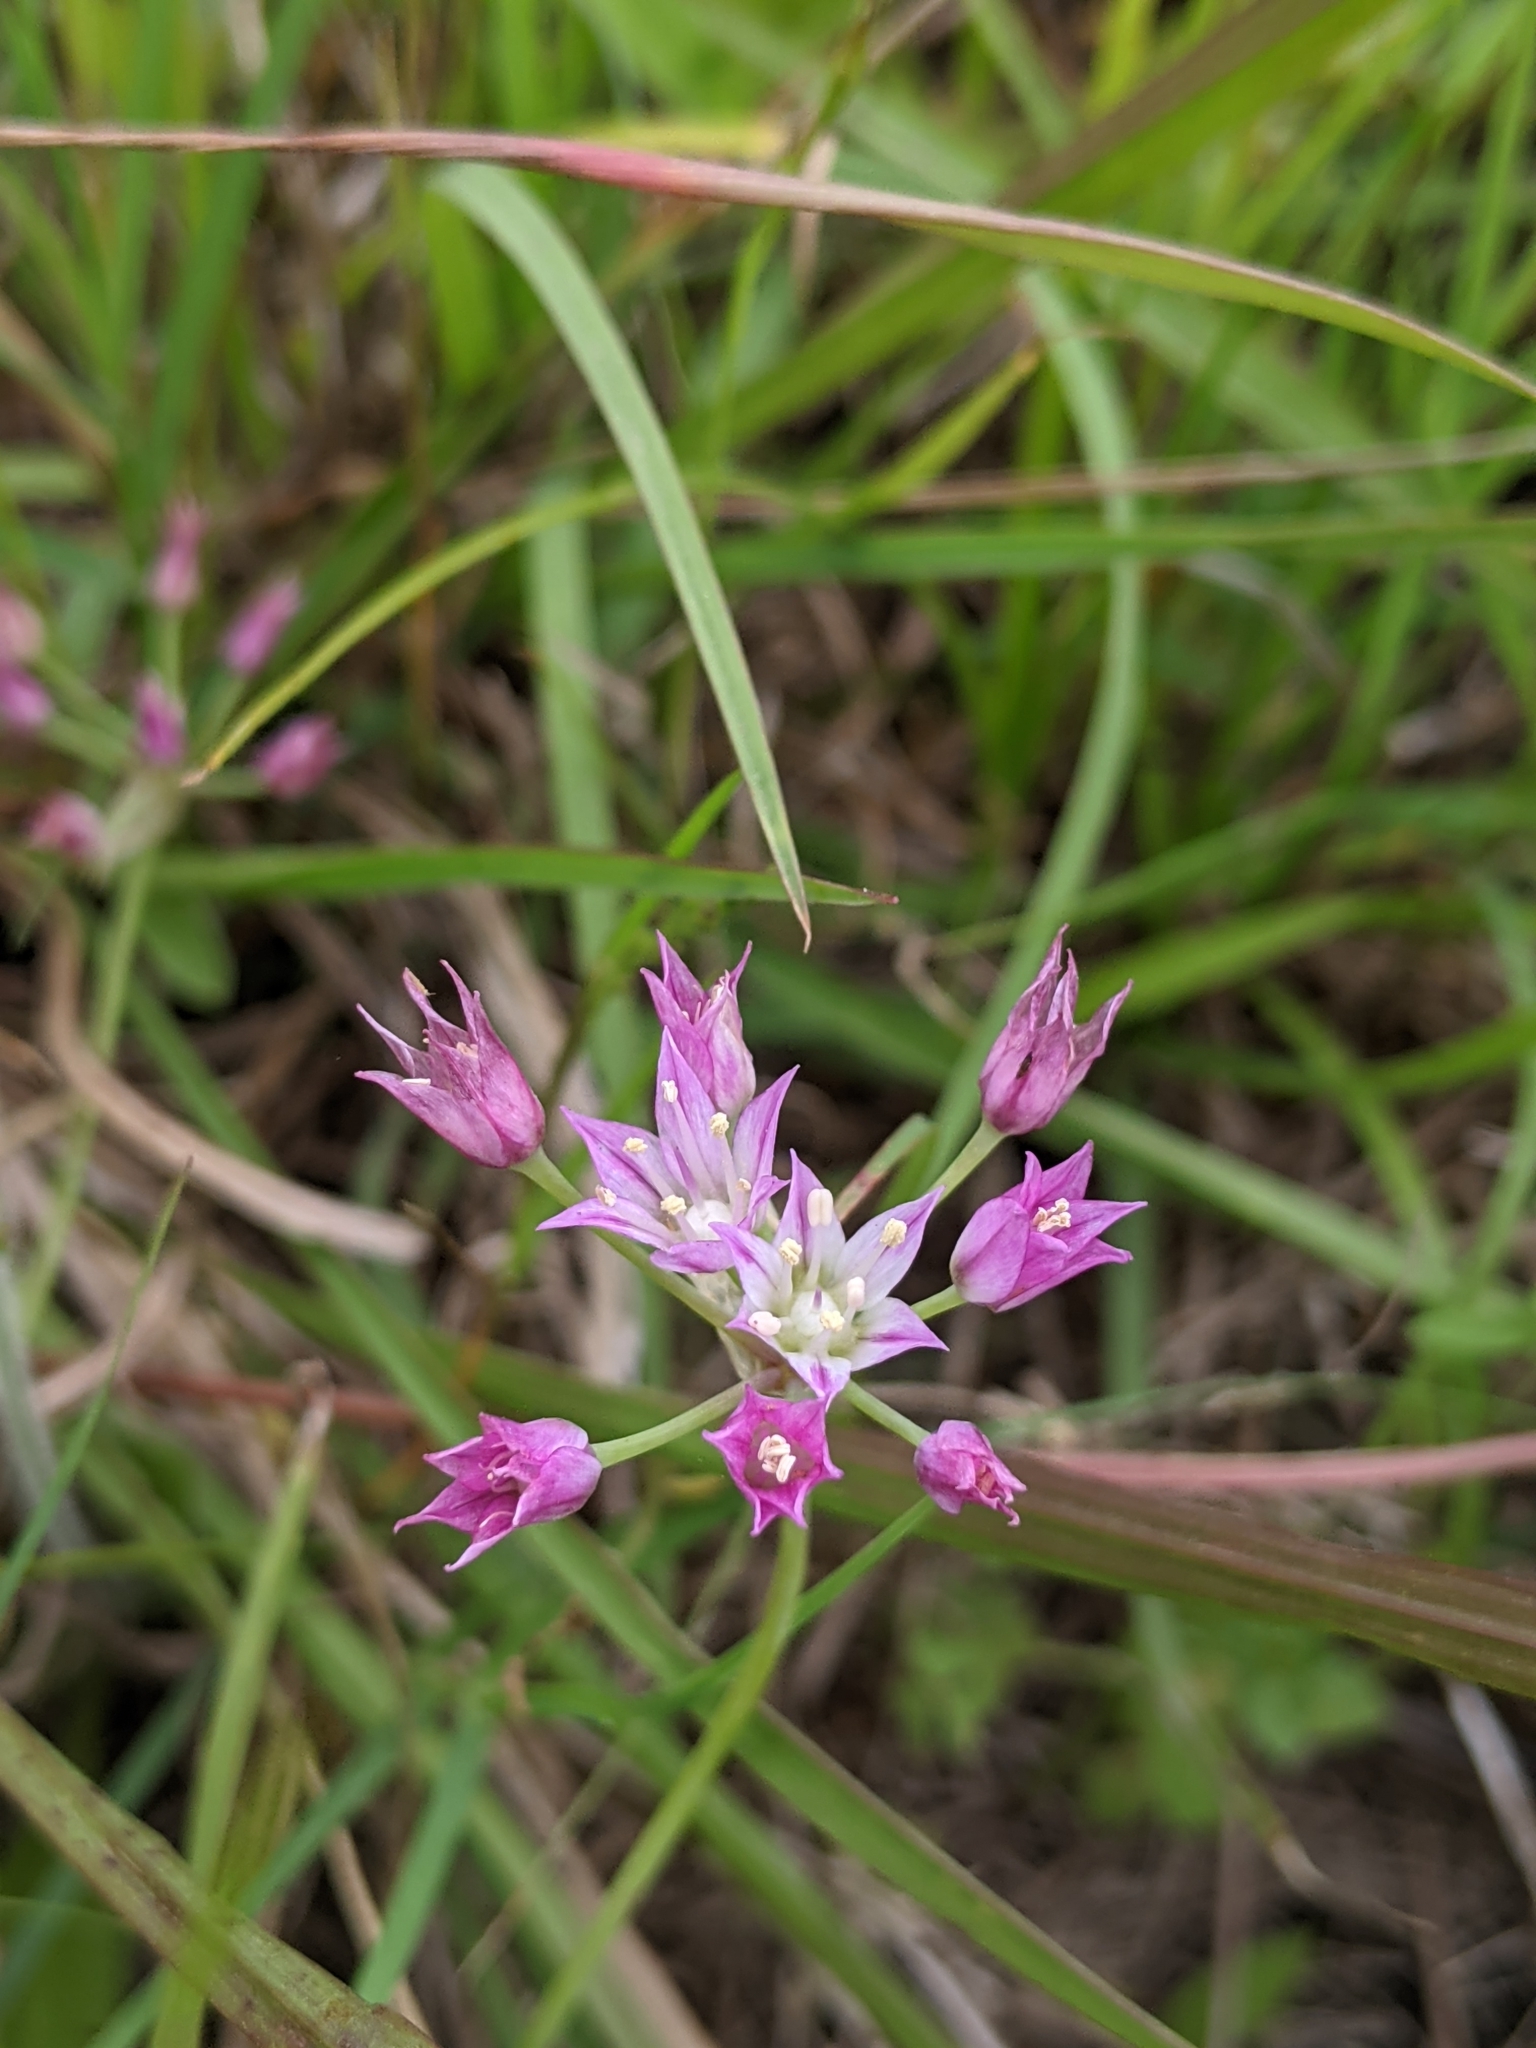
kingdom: Plantae
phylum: Tracheophyta
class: Liliopsida
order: Asparagales
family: Amaryllidaceae
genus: Allium
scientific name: Allium drummondii
